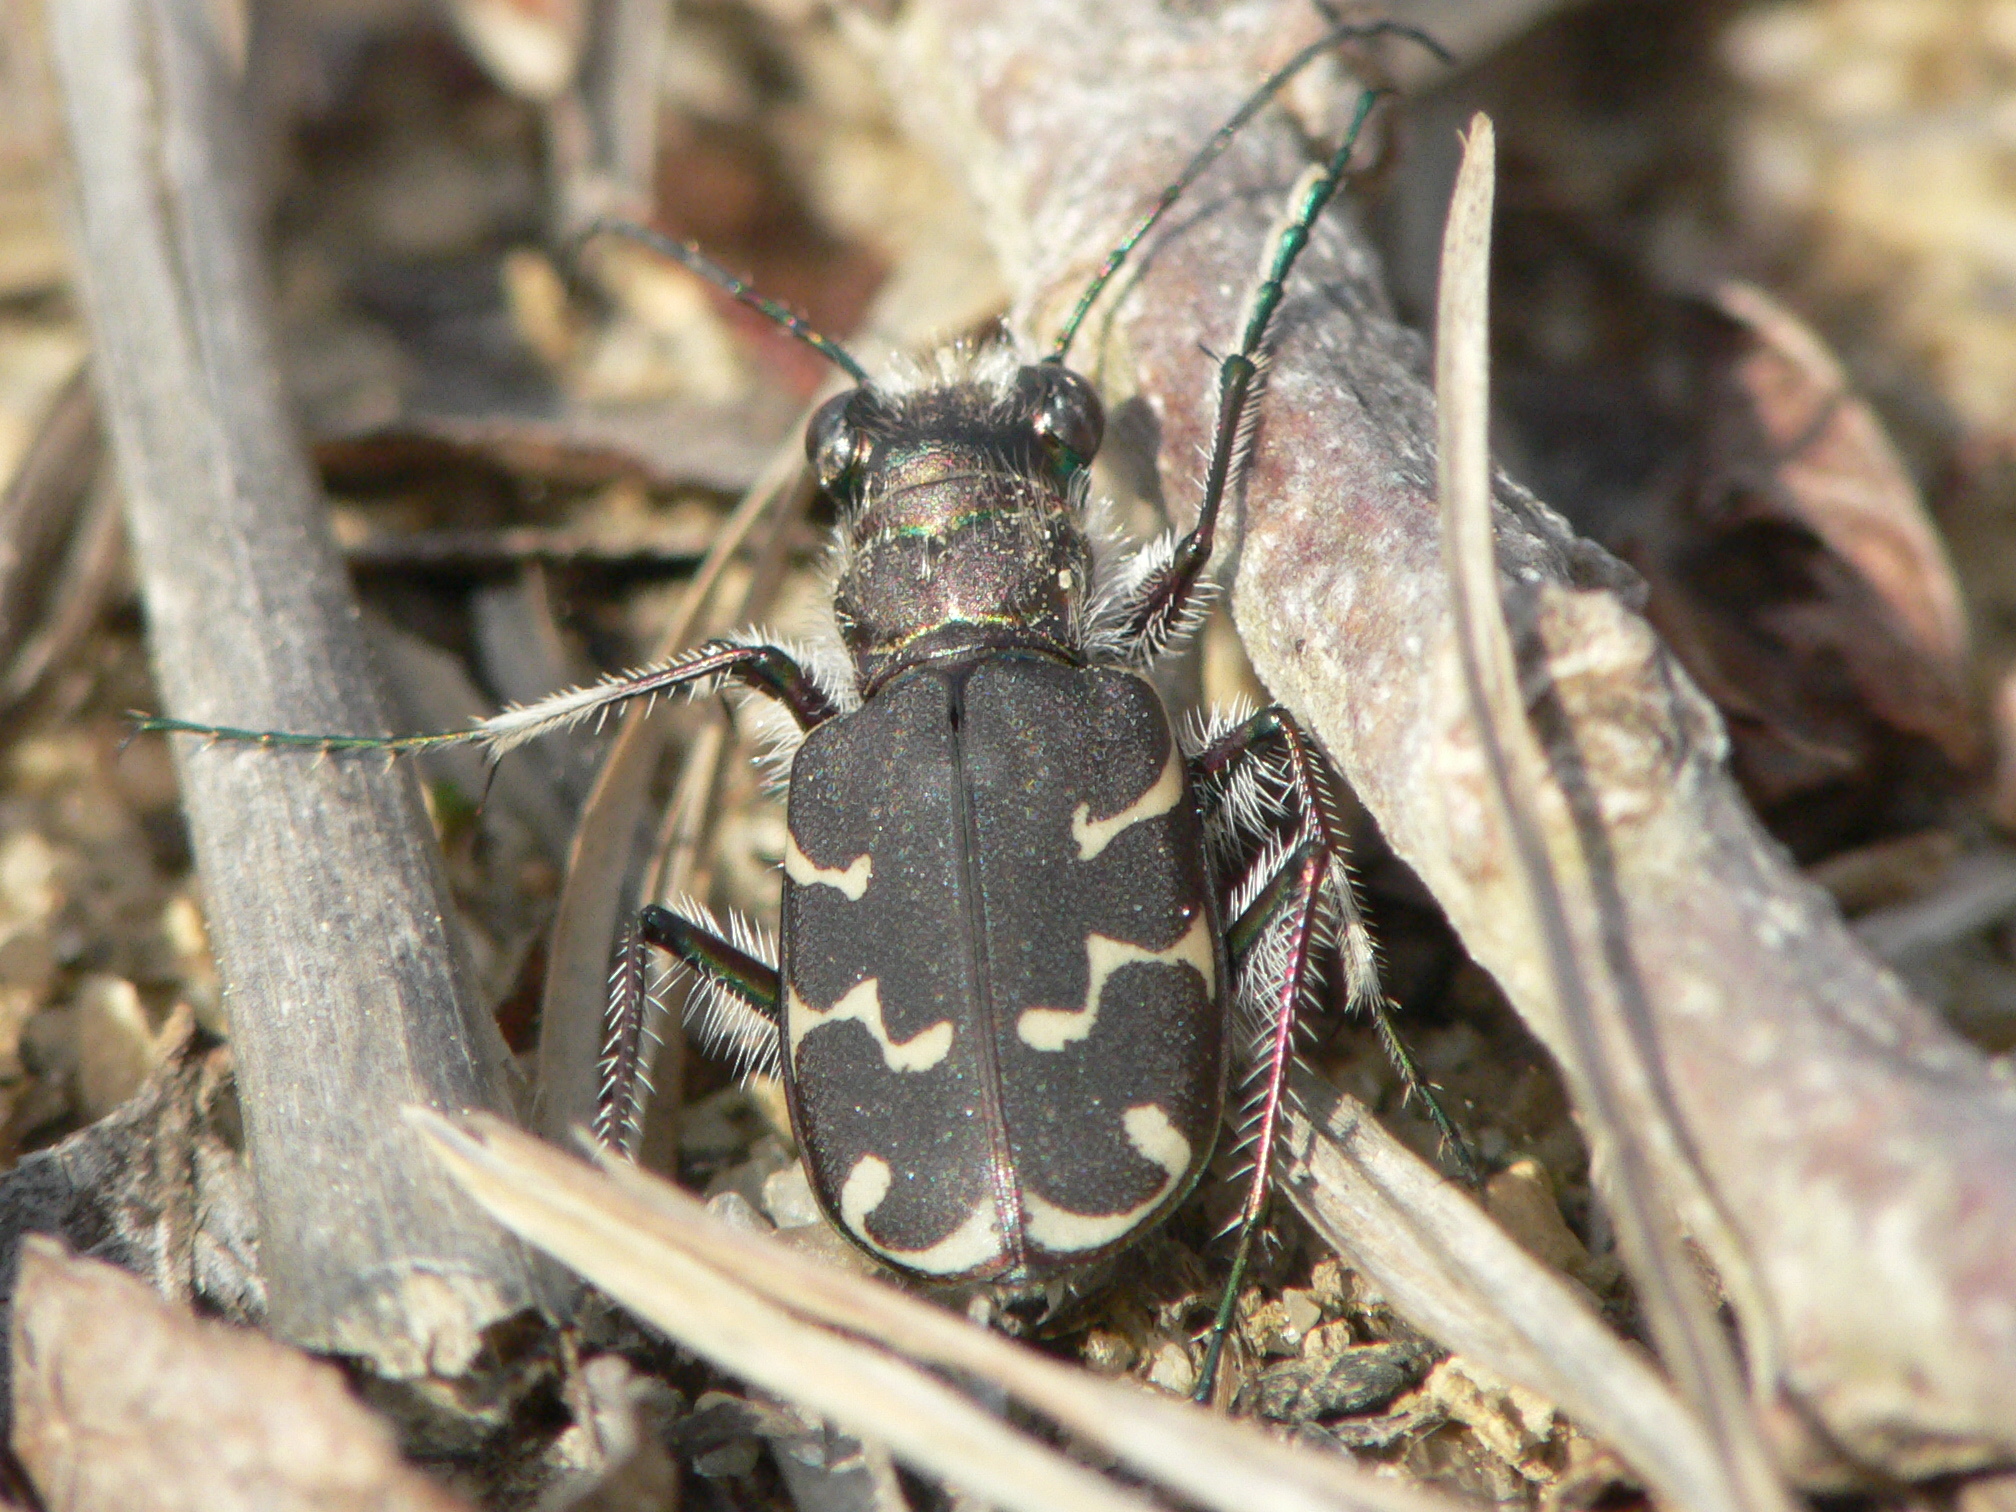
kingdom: Animalia
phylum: Arthropoda
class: Insecta
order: Coleoptera
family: Carabidae
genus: Cicindela
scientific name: Cicindela tranquebarica
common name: Oblique-lined tiger beetle
